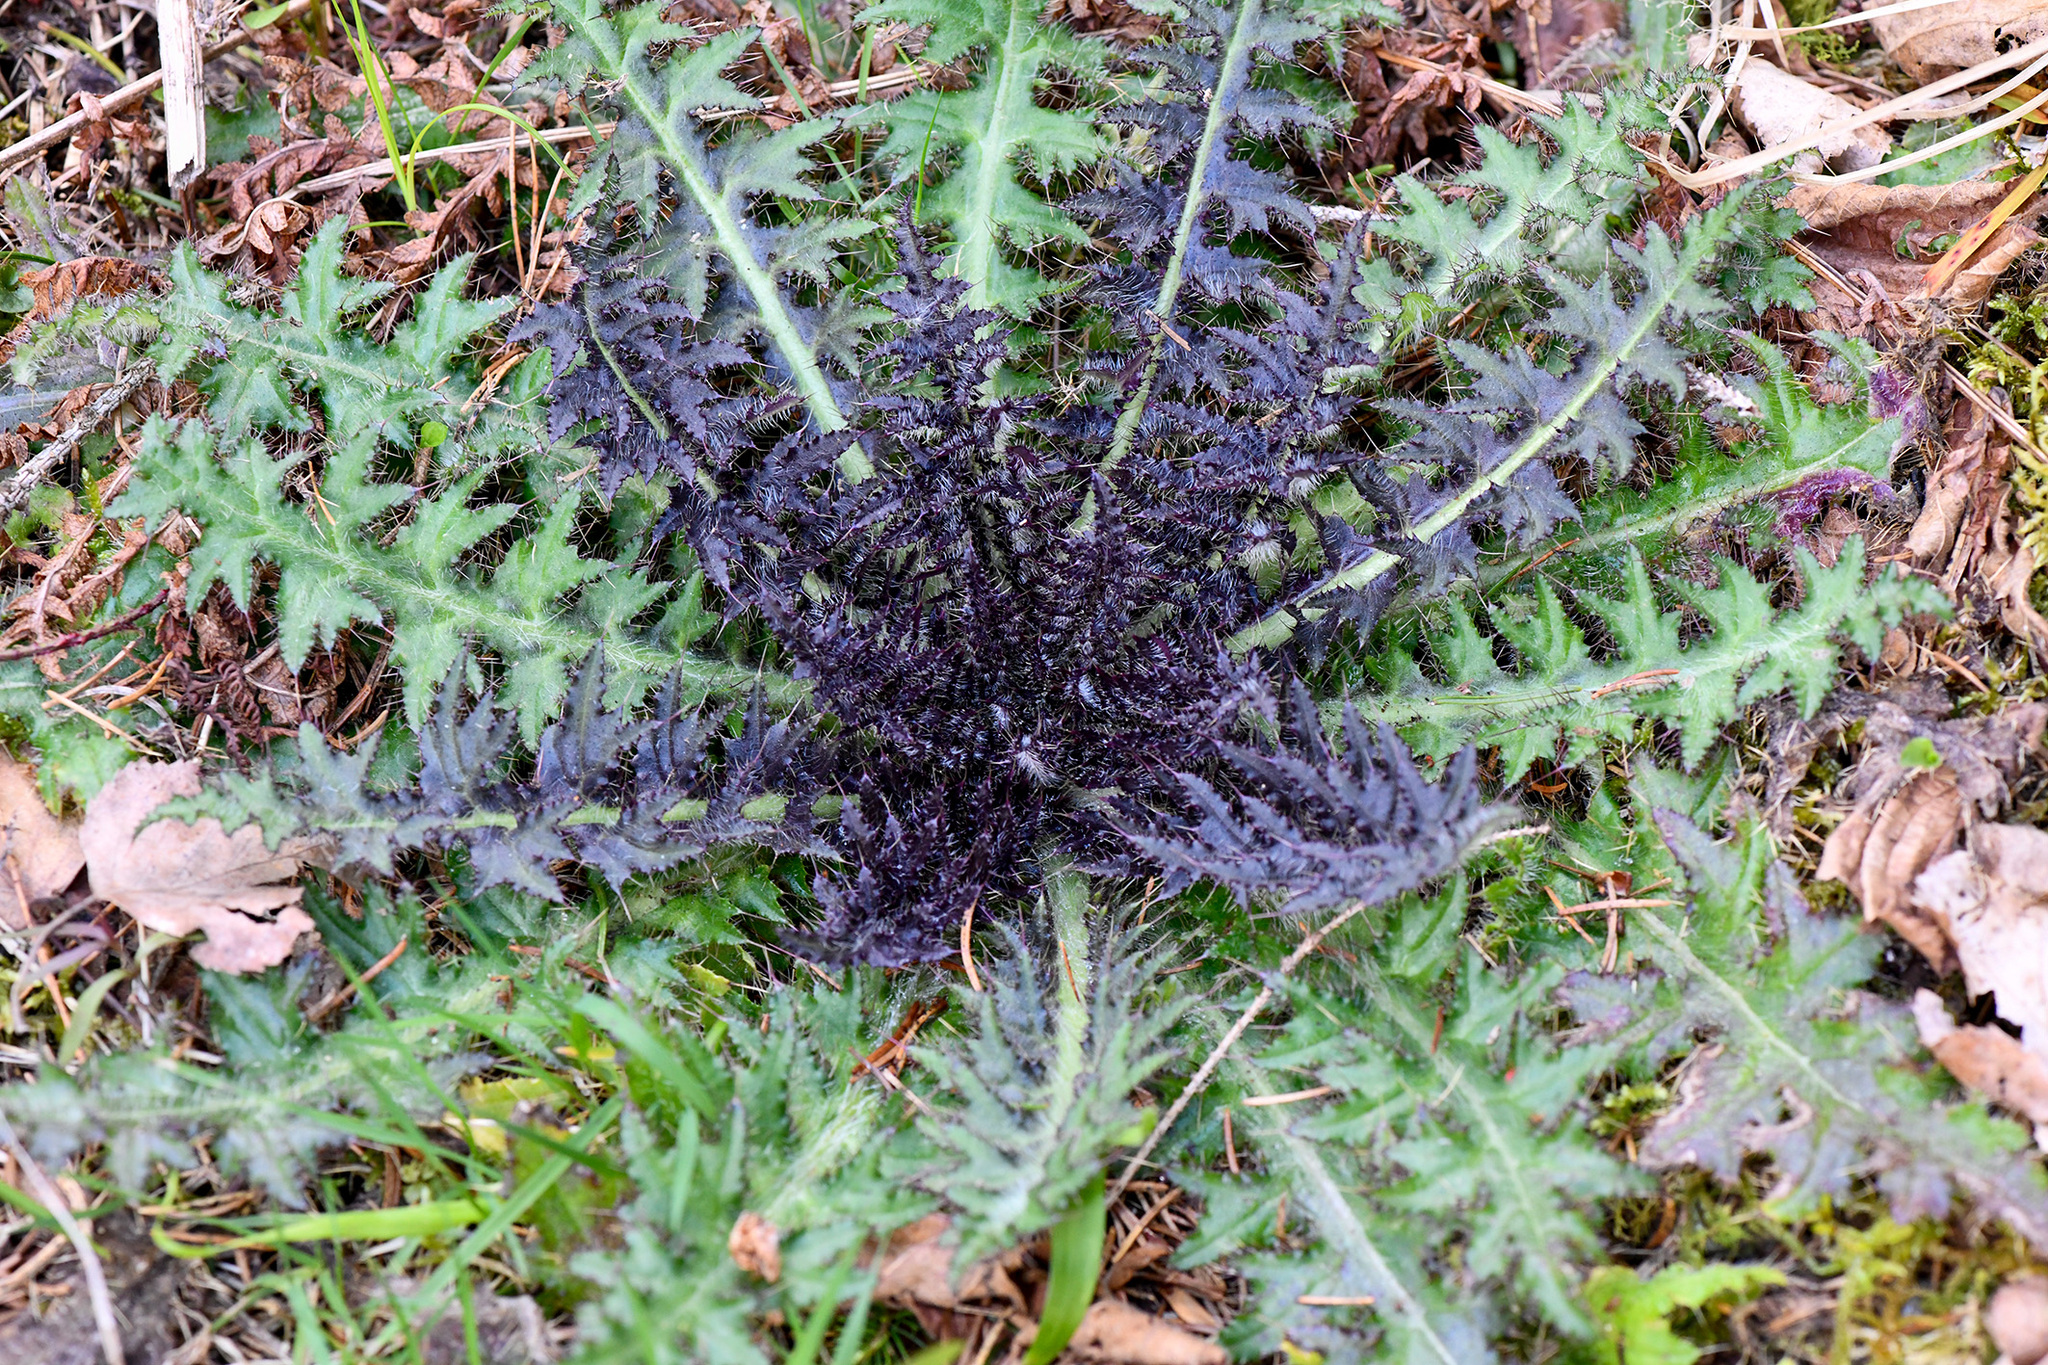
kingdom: Plantae
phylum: Tracheophyta
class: Magnoliopsida
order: Asterales
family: Asteraceae
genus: Cirsium
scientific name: Cirsium palustre
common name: Marsh thistle
